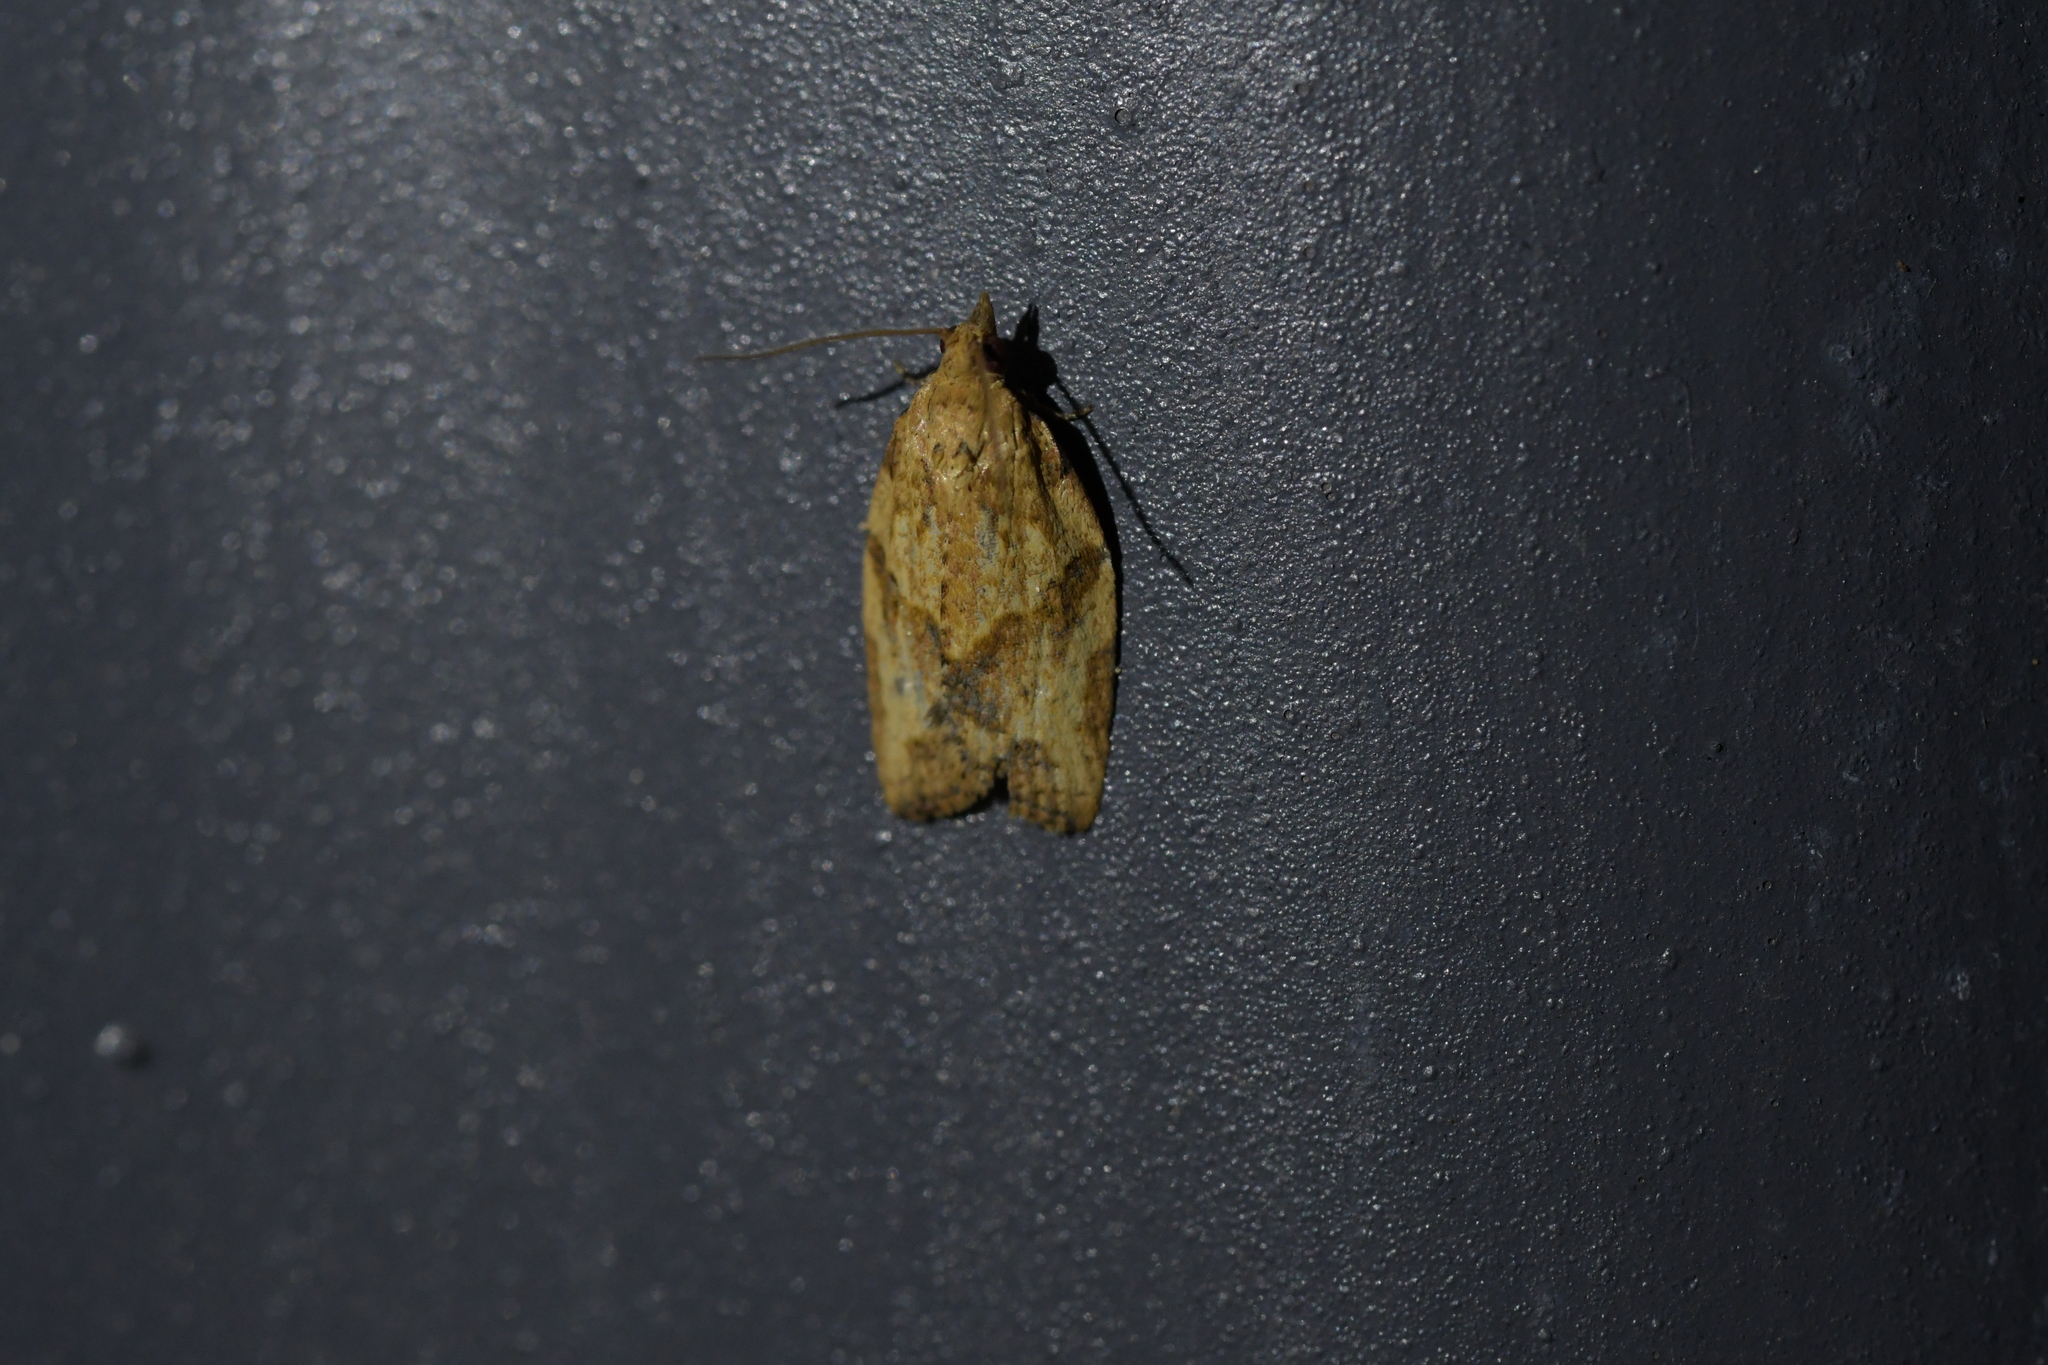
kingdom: Animalia
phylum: Arthropoda
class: Insecta
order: Lepidoptera
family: Tortricidae
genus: Epiphyas
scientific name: Epiphyas postvittana
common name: Light brown apple moth
